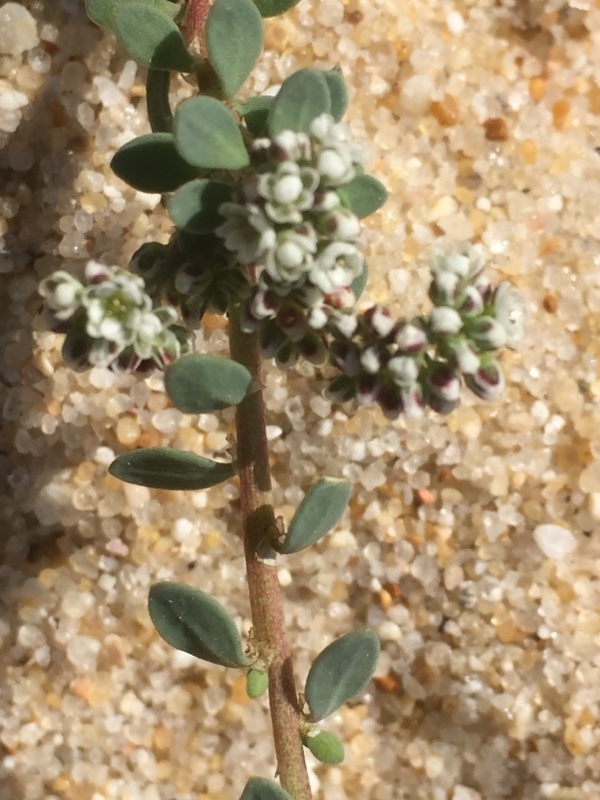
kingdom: Plantae
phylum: Tracheophyta
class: Magnoliopsida
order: Caryophyllales
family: Caryophyllaceae
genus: Corrigiola
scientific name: Corrigiola litoralis
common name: Strapwort
